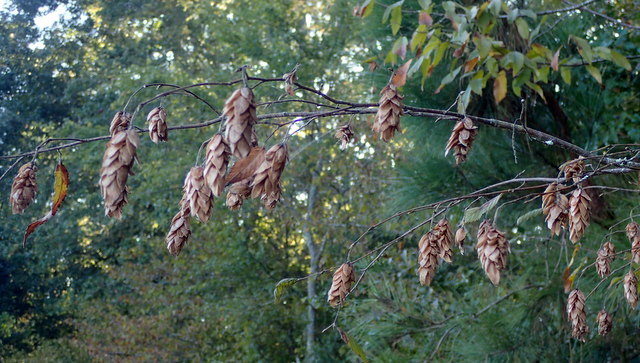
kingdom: Plantae
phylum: Tracheophyta
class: Magnoliopsida
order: Fagales
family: Betulaceae
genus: Ostrya
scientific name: Ostrya virginiana
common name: Ironwood
